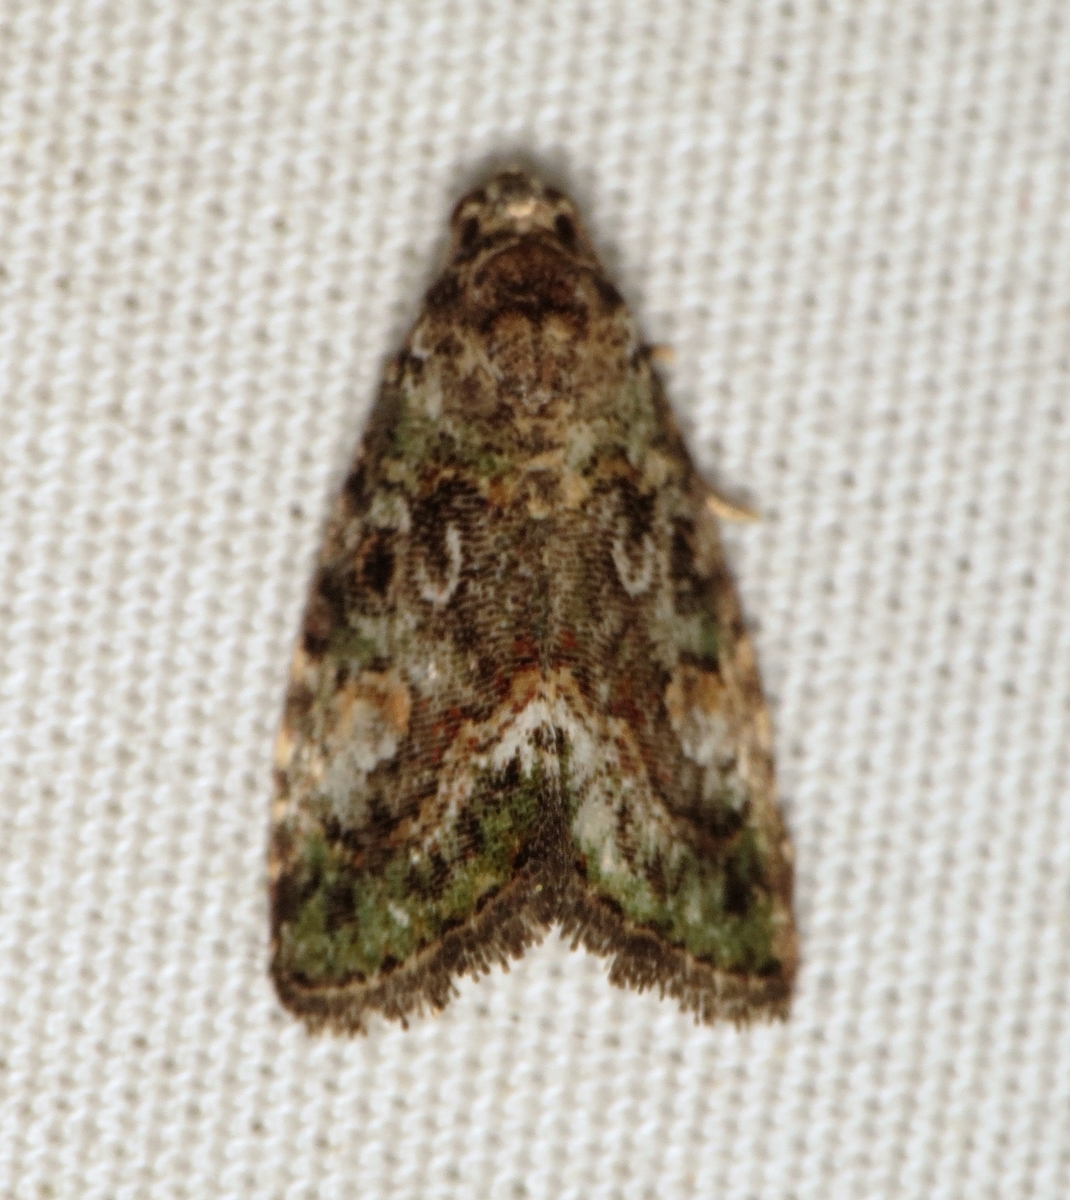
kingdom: Animalia
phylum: Arthropoda
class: Insecta
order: Lepidoptera
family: Noctuidae
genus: Lithacodia
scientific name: Lithacodia musta
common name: Small mossy glyph
